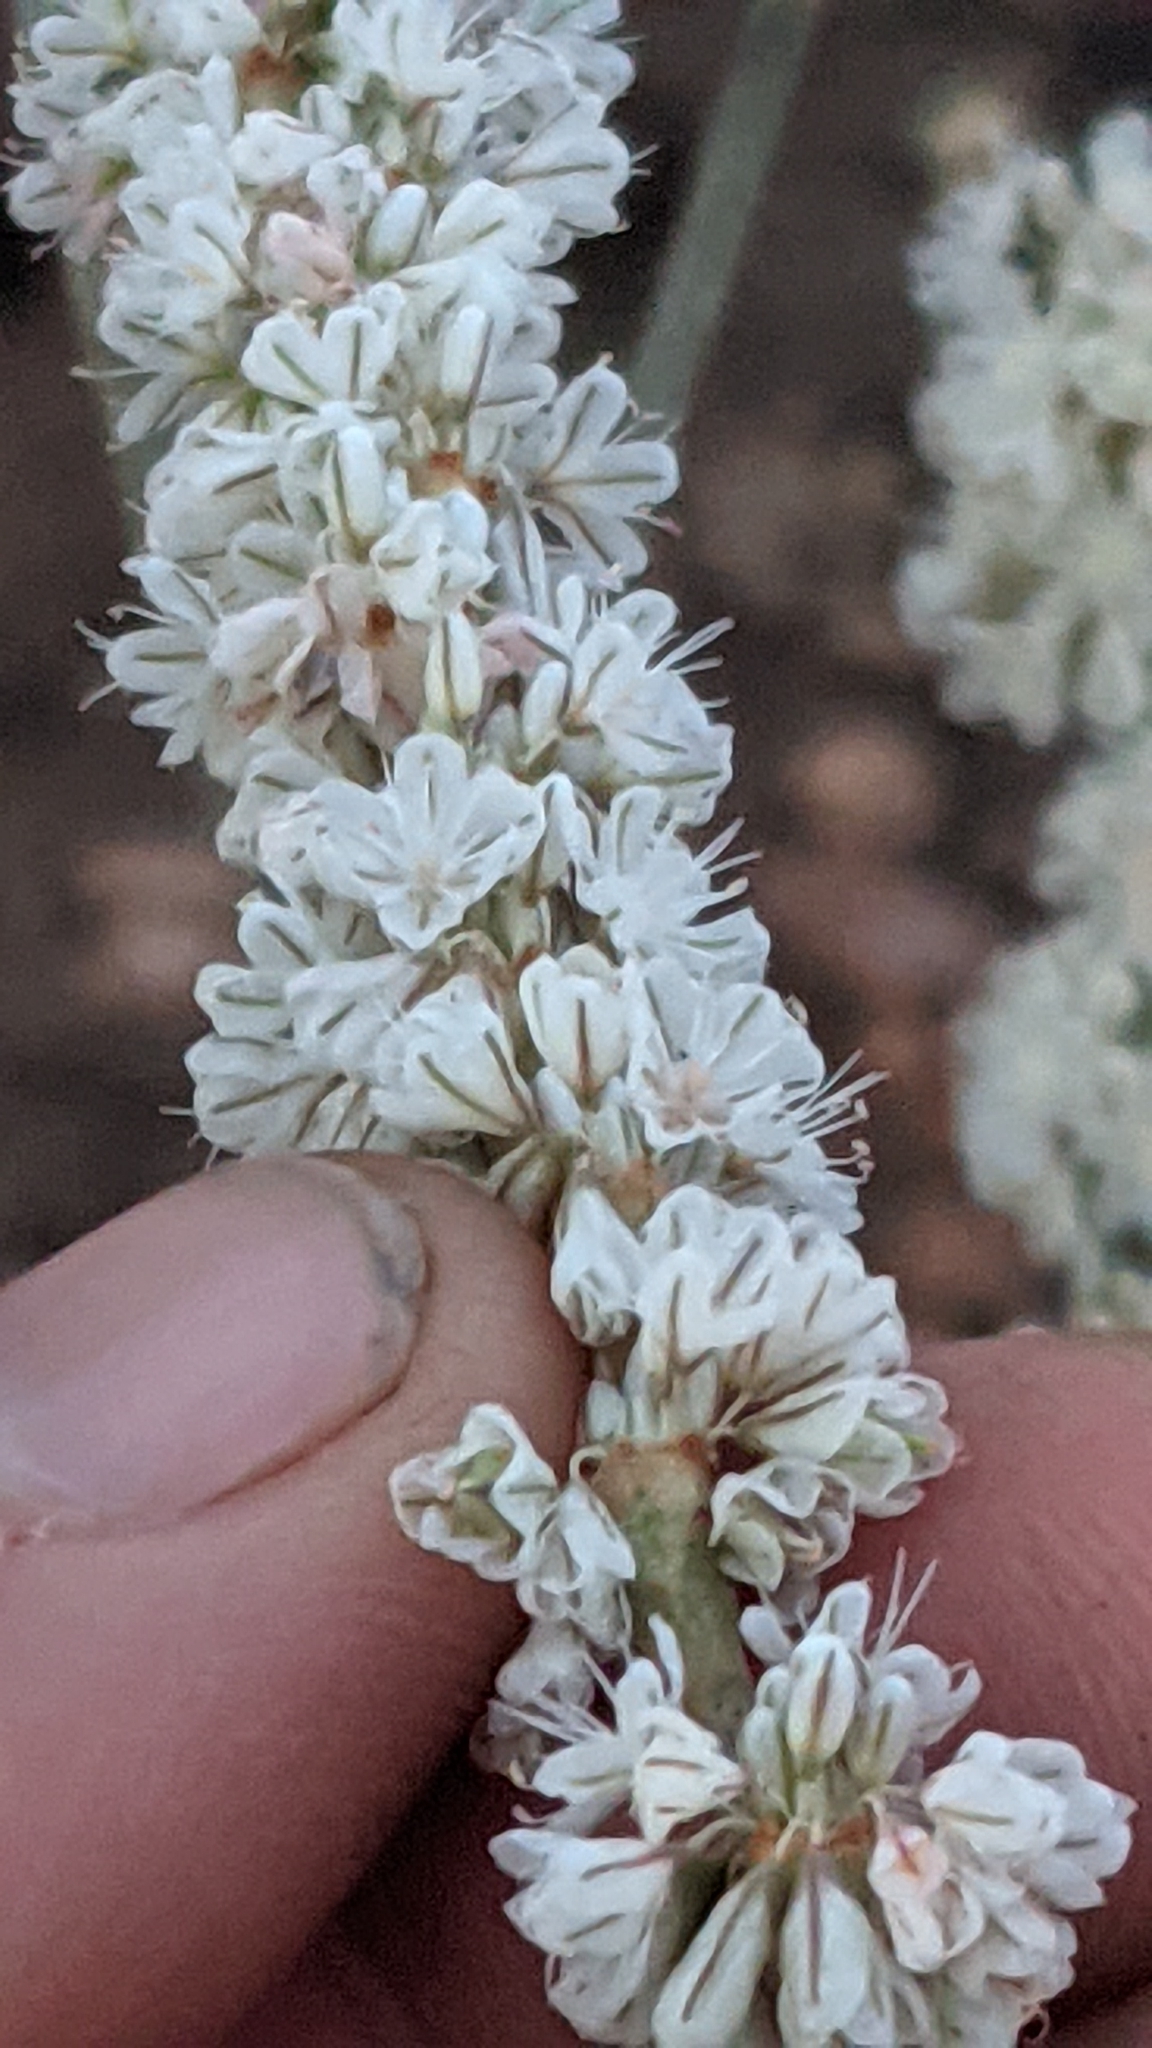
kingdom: Plantae
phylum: Tracheophyta
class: Magnoliopsida
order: Caryophyllales
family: Polygonaceae
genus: Eriogonum
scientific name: Eriogonum racemosum
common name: Redroot wild buckwheat
